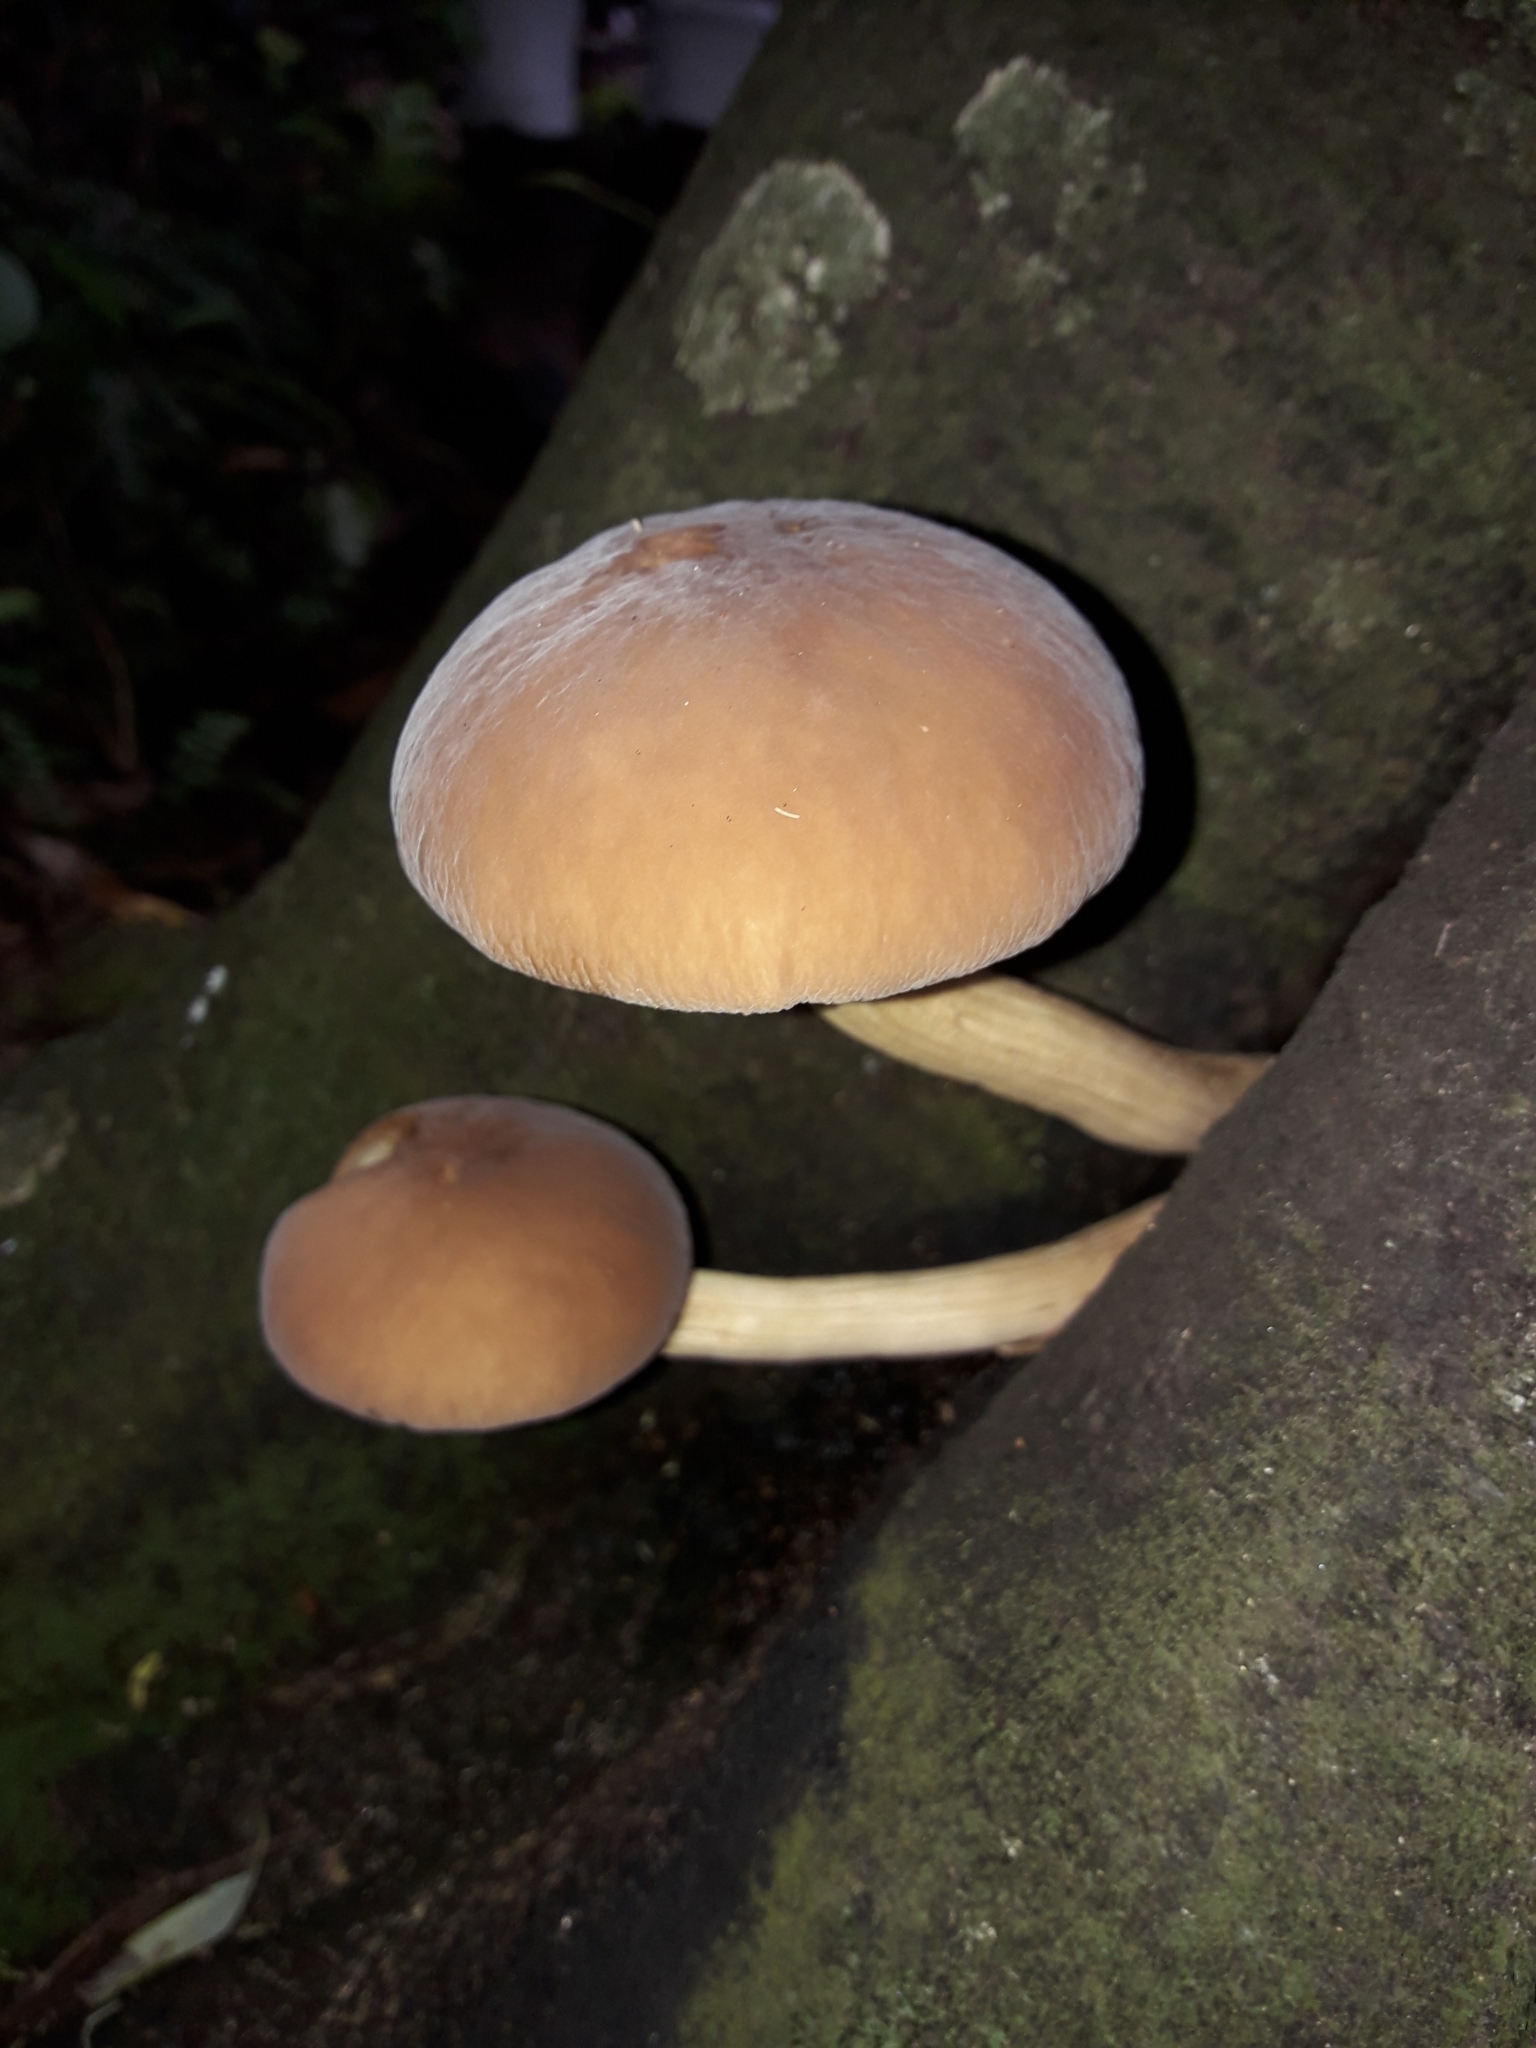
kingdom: Fungi
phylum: Basidiomycota
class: Agaricomycetes
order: Agaricales
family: Tubariaceae
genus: Cyclocybe
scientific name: Cyclocybe parasitica
